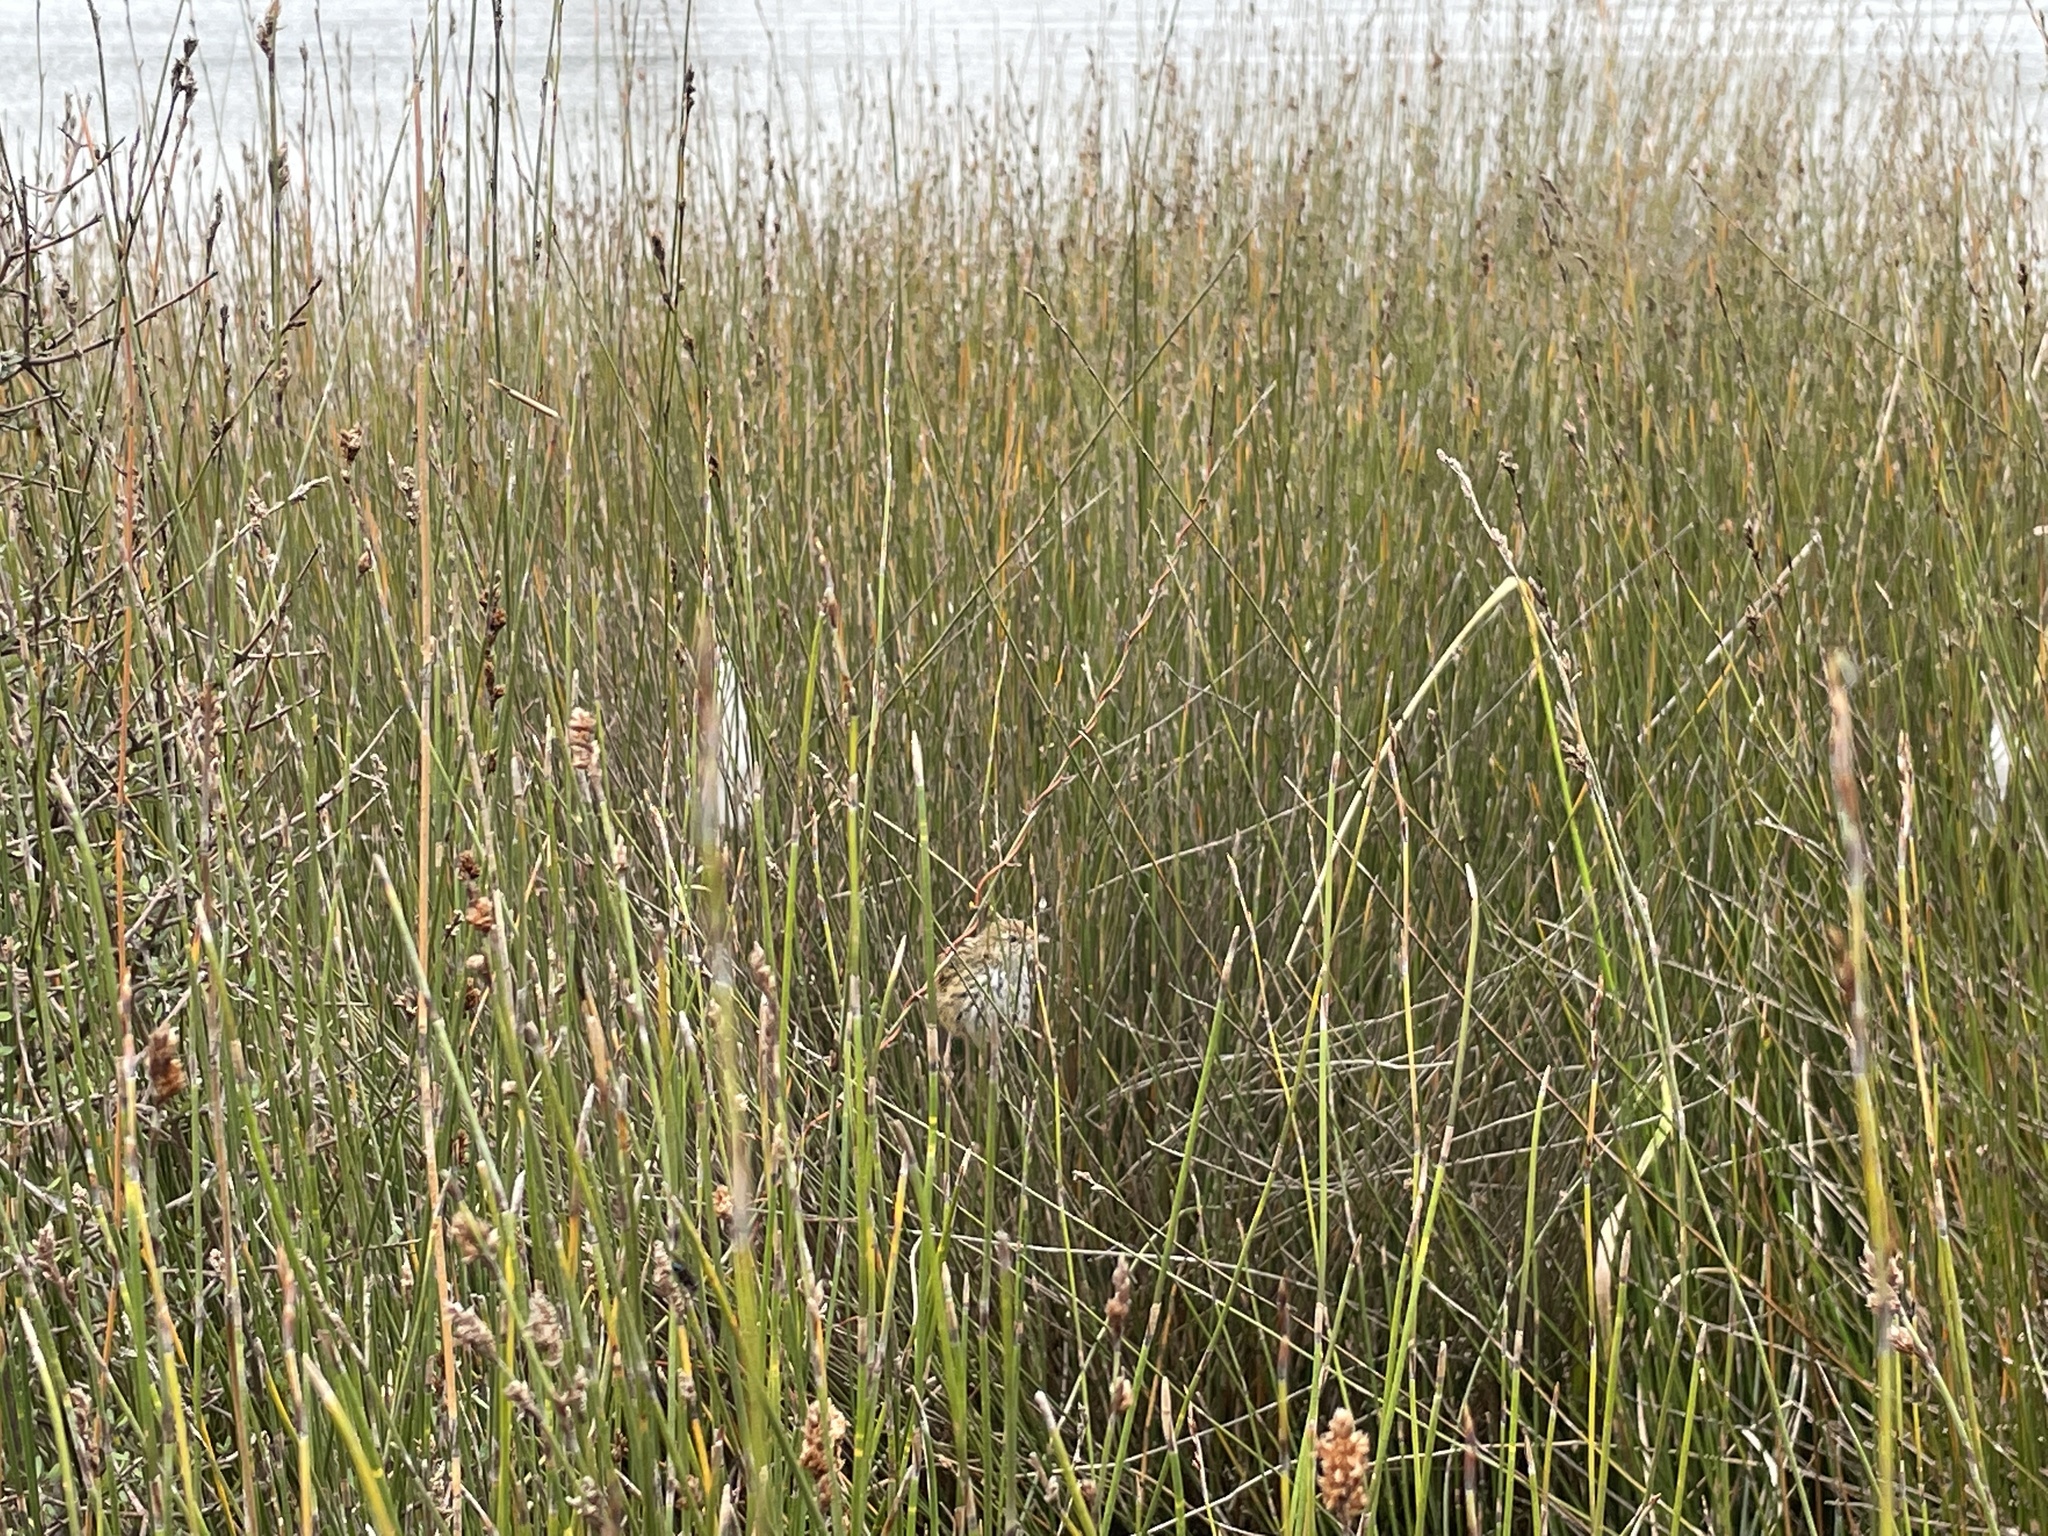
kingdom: Animalia
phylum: Chordata
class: Aves
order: Passeriformes
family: Locustellidae
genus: Poodytes
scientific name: Poodytes punctatus
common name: New zealand fernbird
